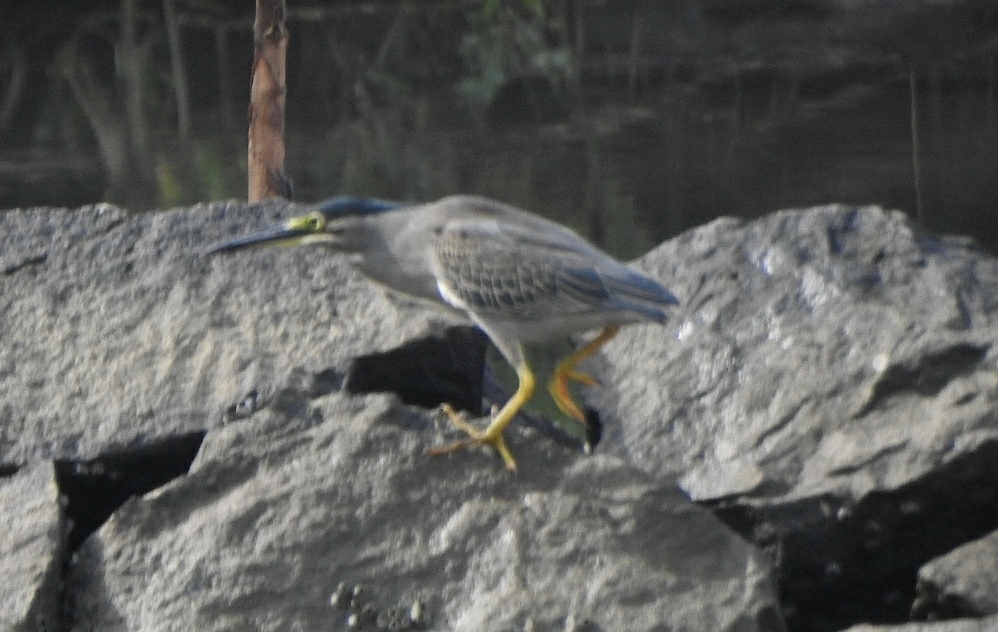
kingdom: Animalia
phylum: Chordata
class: Aves
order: Pelecaniformes
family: Ardeidae
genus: Butorides
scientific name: Butorides striata
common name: Striated heron
